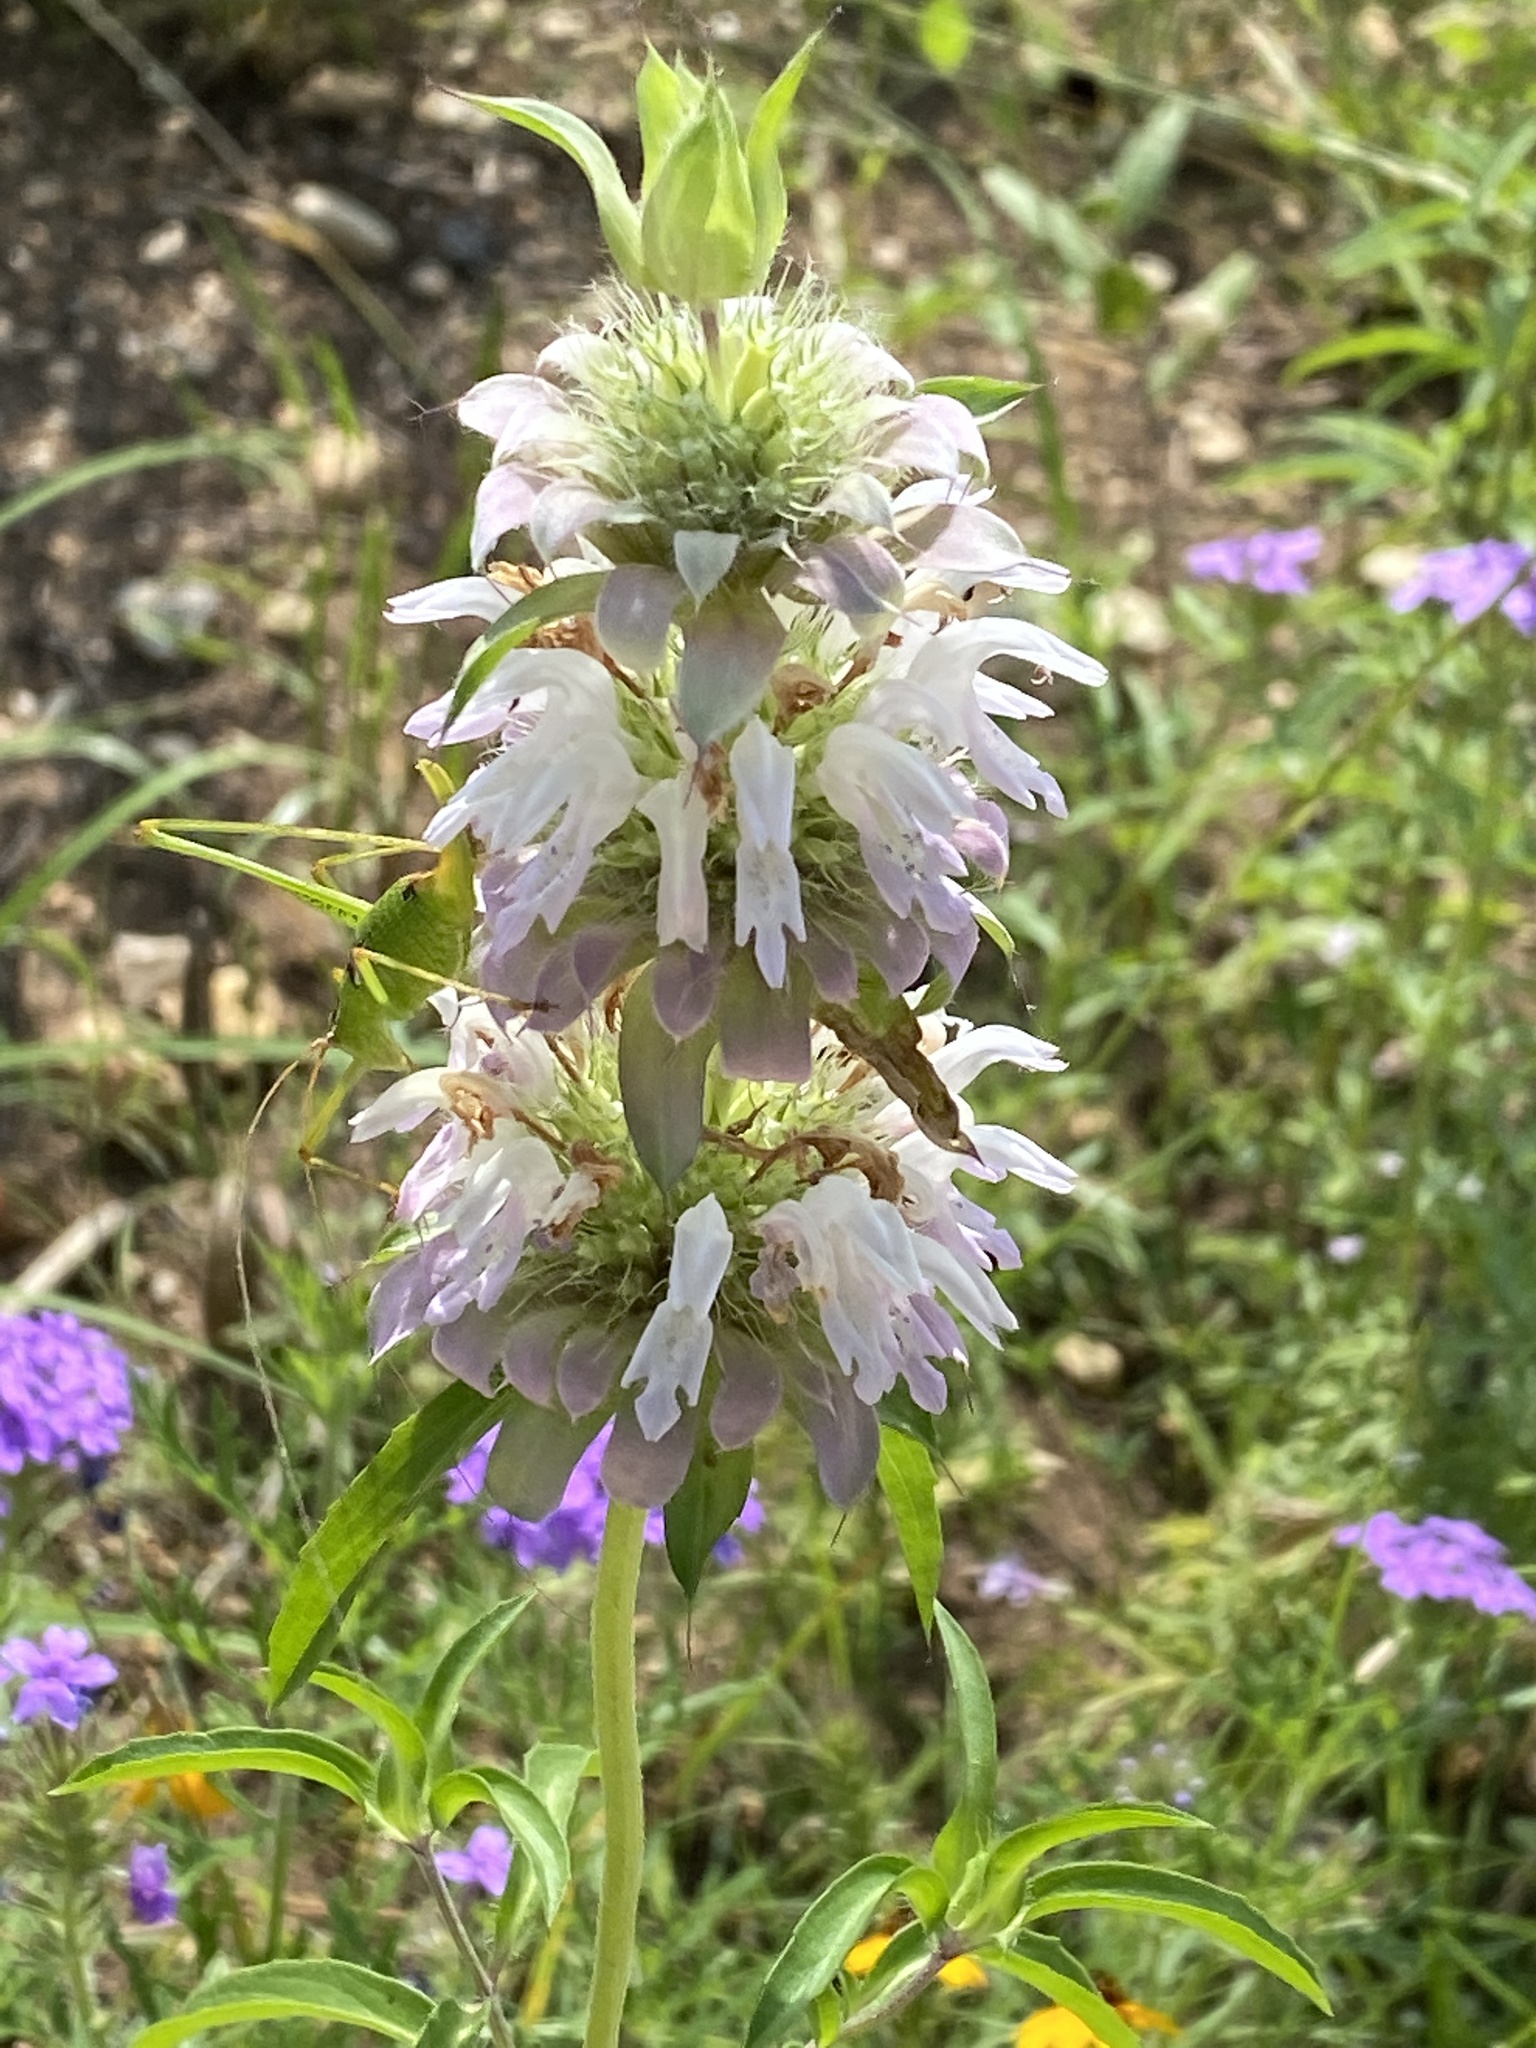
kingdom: Plantae
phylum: Tracheophyta
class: Magnoliopsida
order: Lamiales
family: Lamiaceae
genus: Monarda
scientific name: Monarda citriodora
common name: Lemon beebalm
